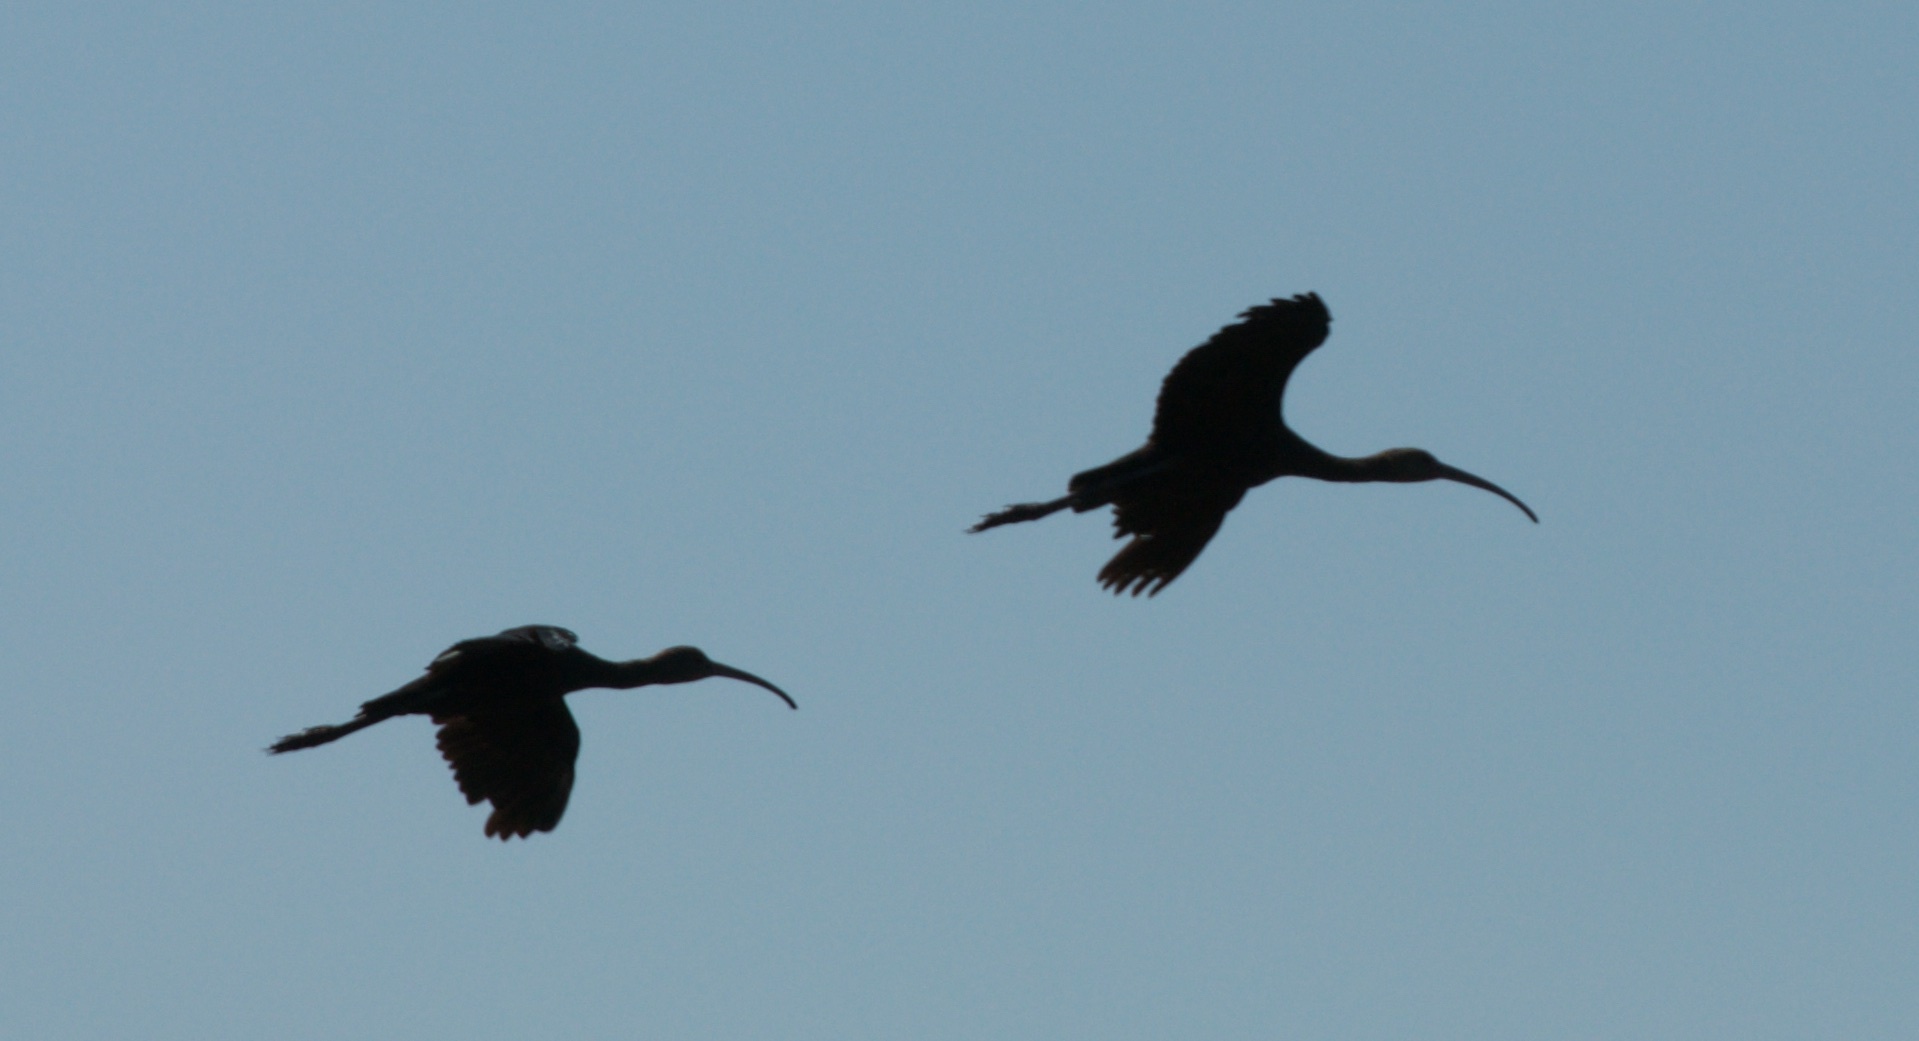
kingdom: Animalia
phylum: Chordata
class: Aves
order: Pelecaniformes
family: Threskiornithidae
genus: Plegadis
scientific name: Plegadis chihi
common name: White-faced ibis
